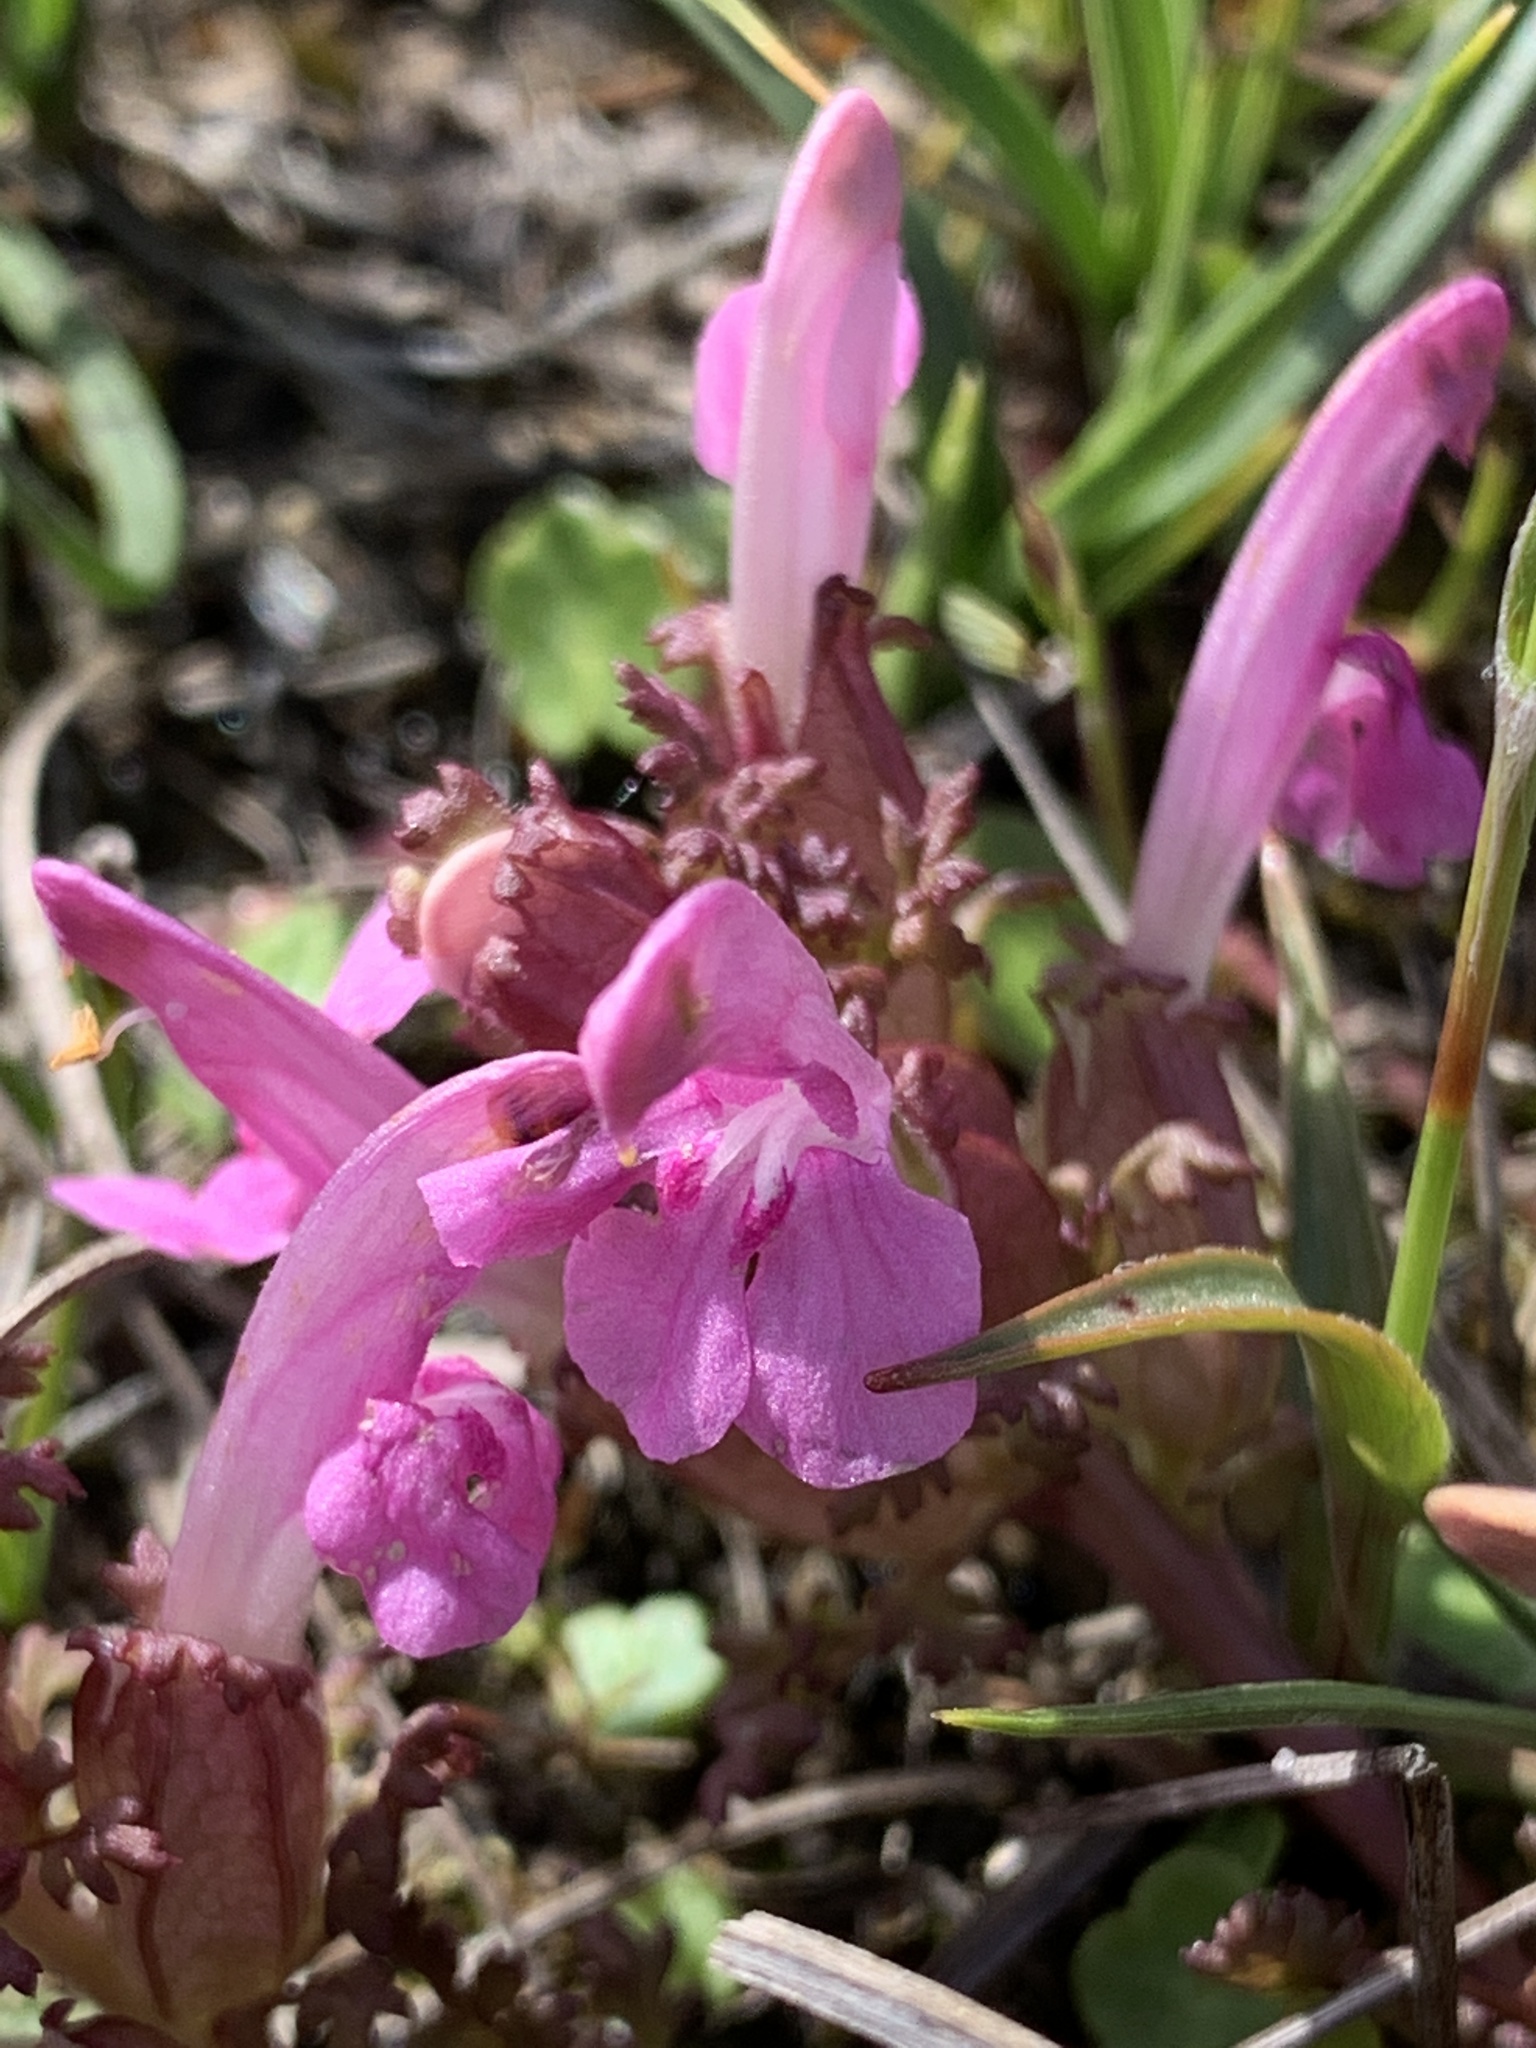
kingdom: Plantae
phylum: Tracheophyta
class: Magnoliopsida
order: Lamiales
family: Orobanchaceae
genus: Pedicularis
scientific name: Pedicularis sylvatica
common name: Lousewort
